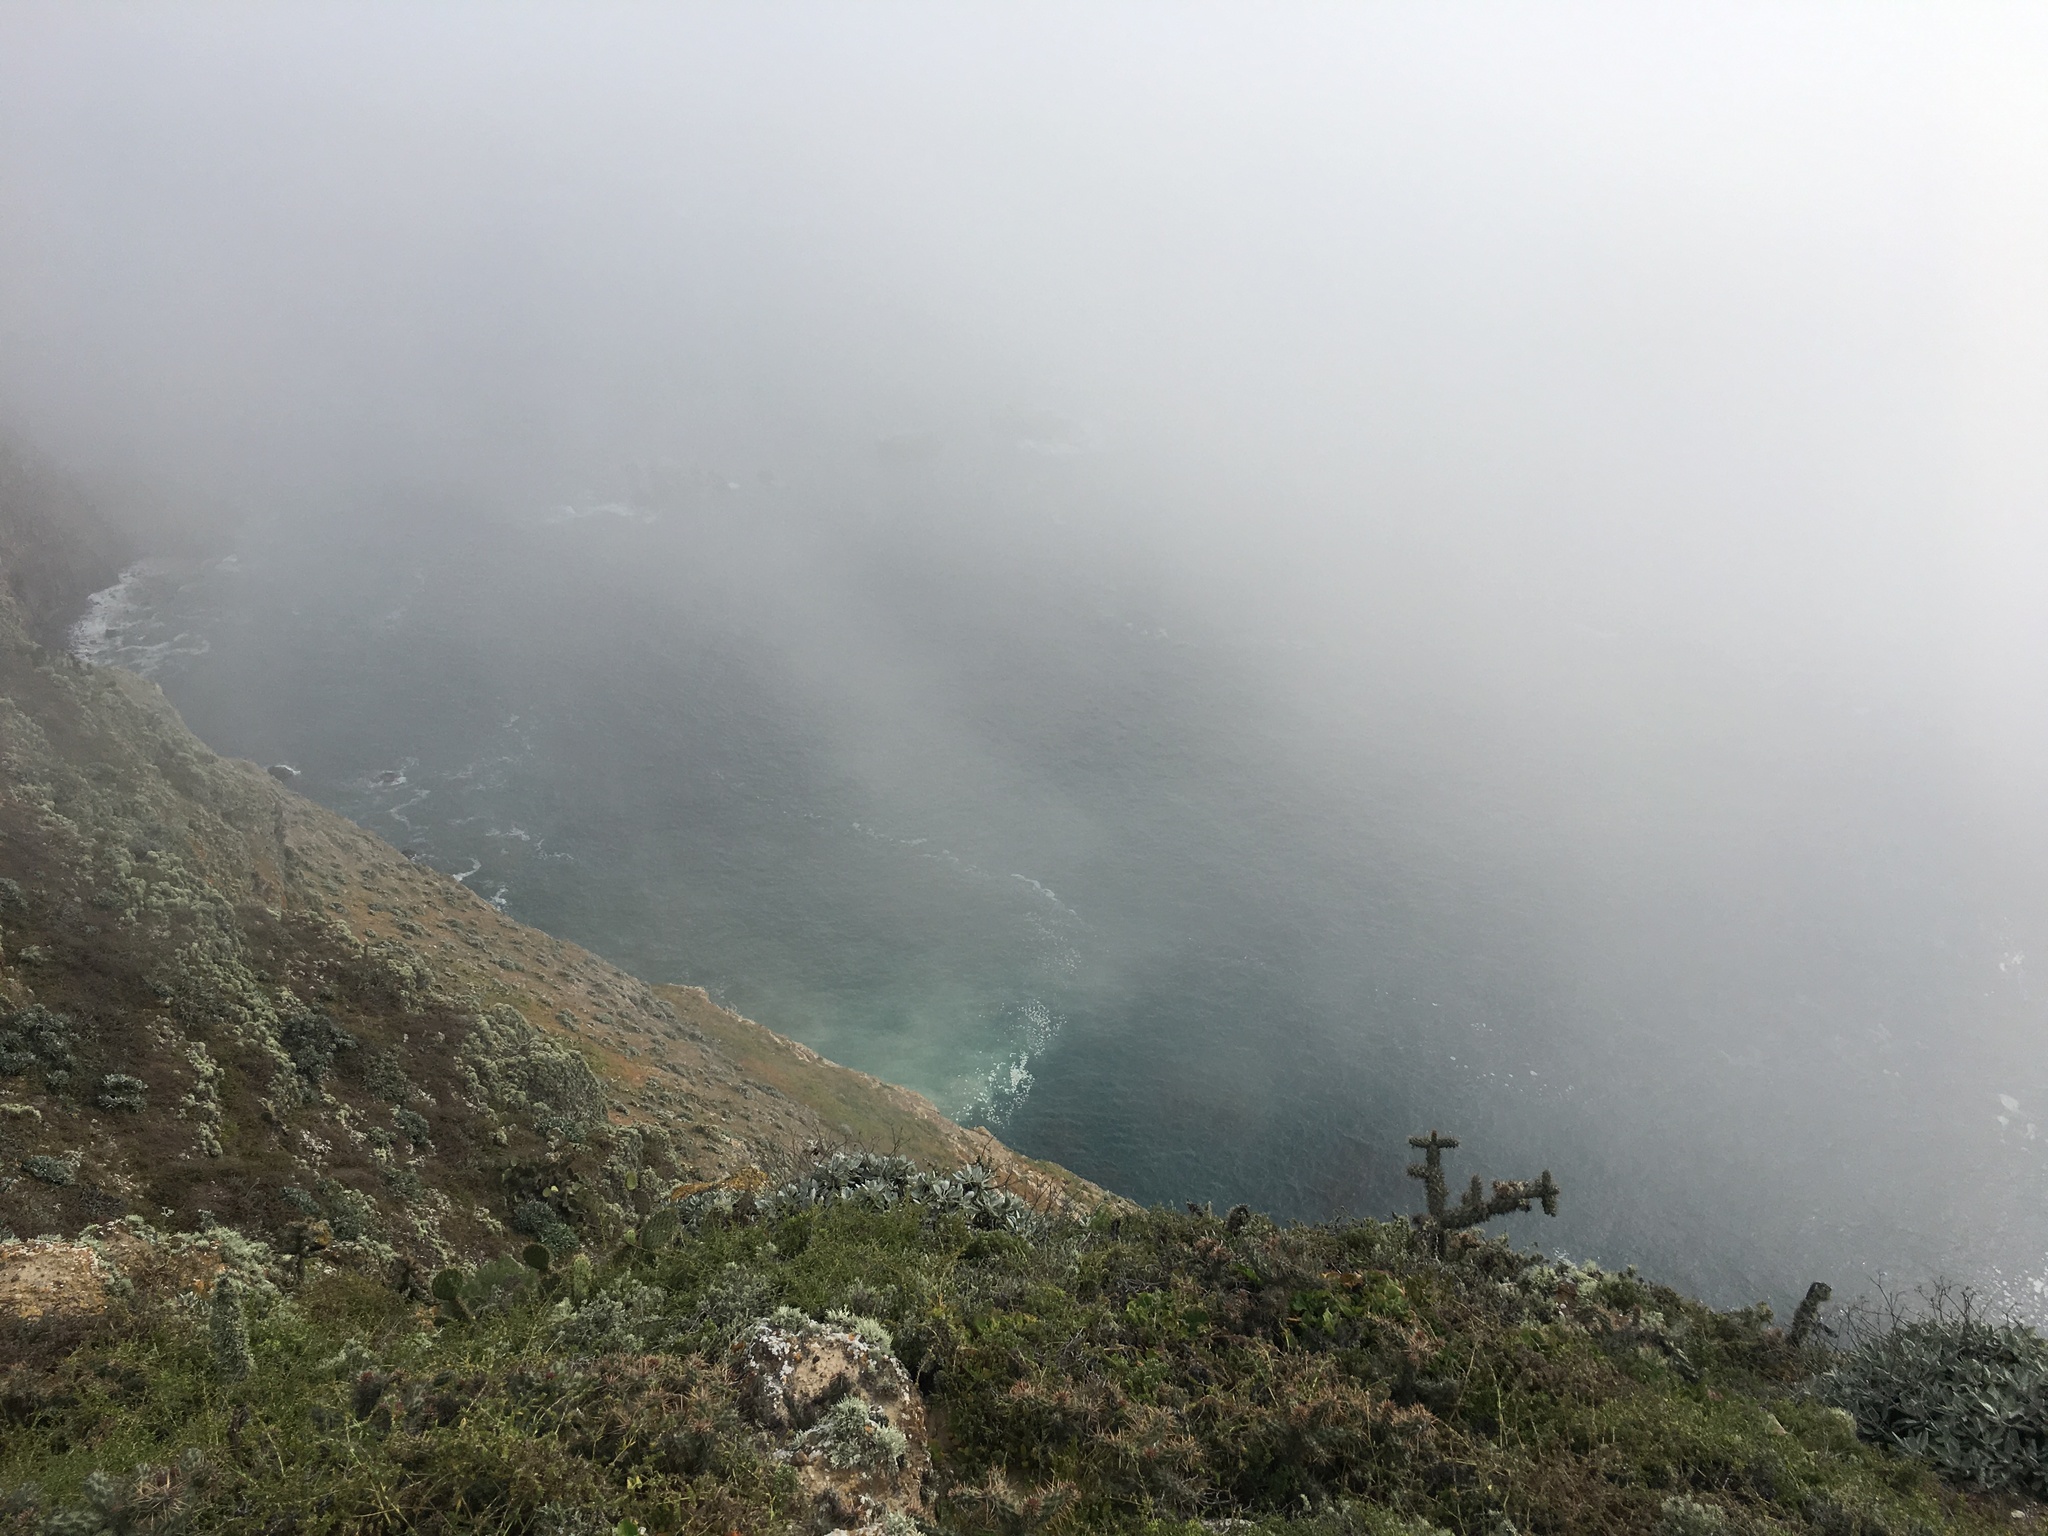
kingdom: Plantae
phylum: Tracheophyta
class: Magnoliopsida
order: Caryophyllales
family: Cactaceae
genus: Cylindropuntia
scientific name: Cylindropuntia prolifera
